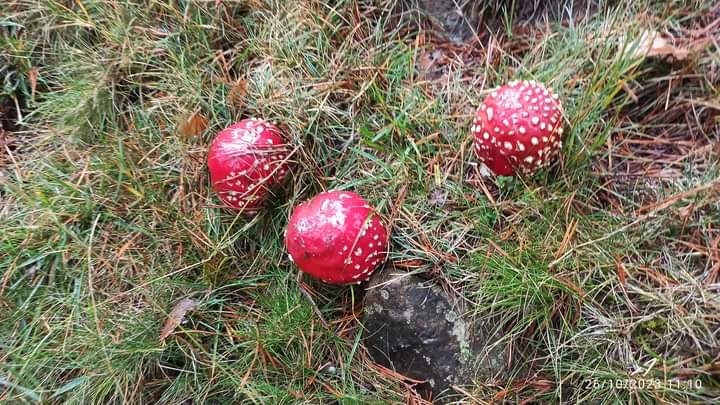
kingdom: Fungi
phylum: Basidiomycota
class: Agaricomycetes
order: Agaricales
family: Amanitaceae
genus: Amanita
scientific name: Amanita muscaria
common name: Fly agaric
